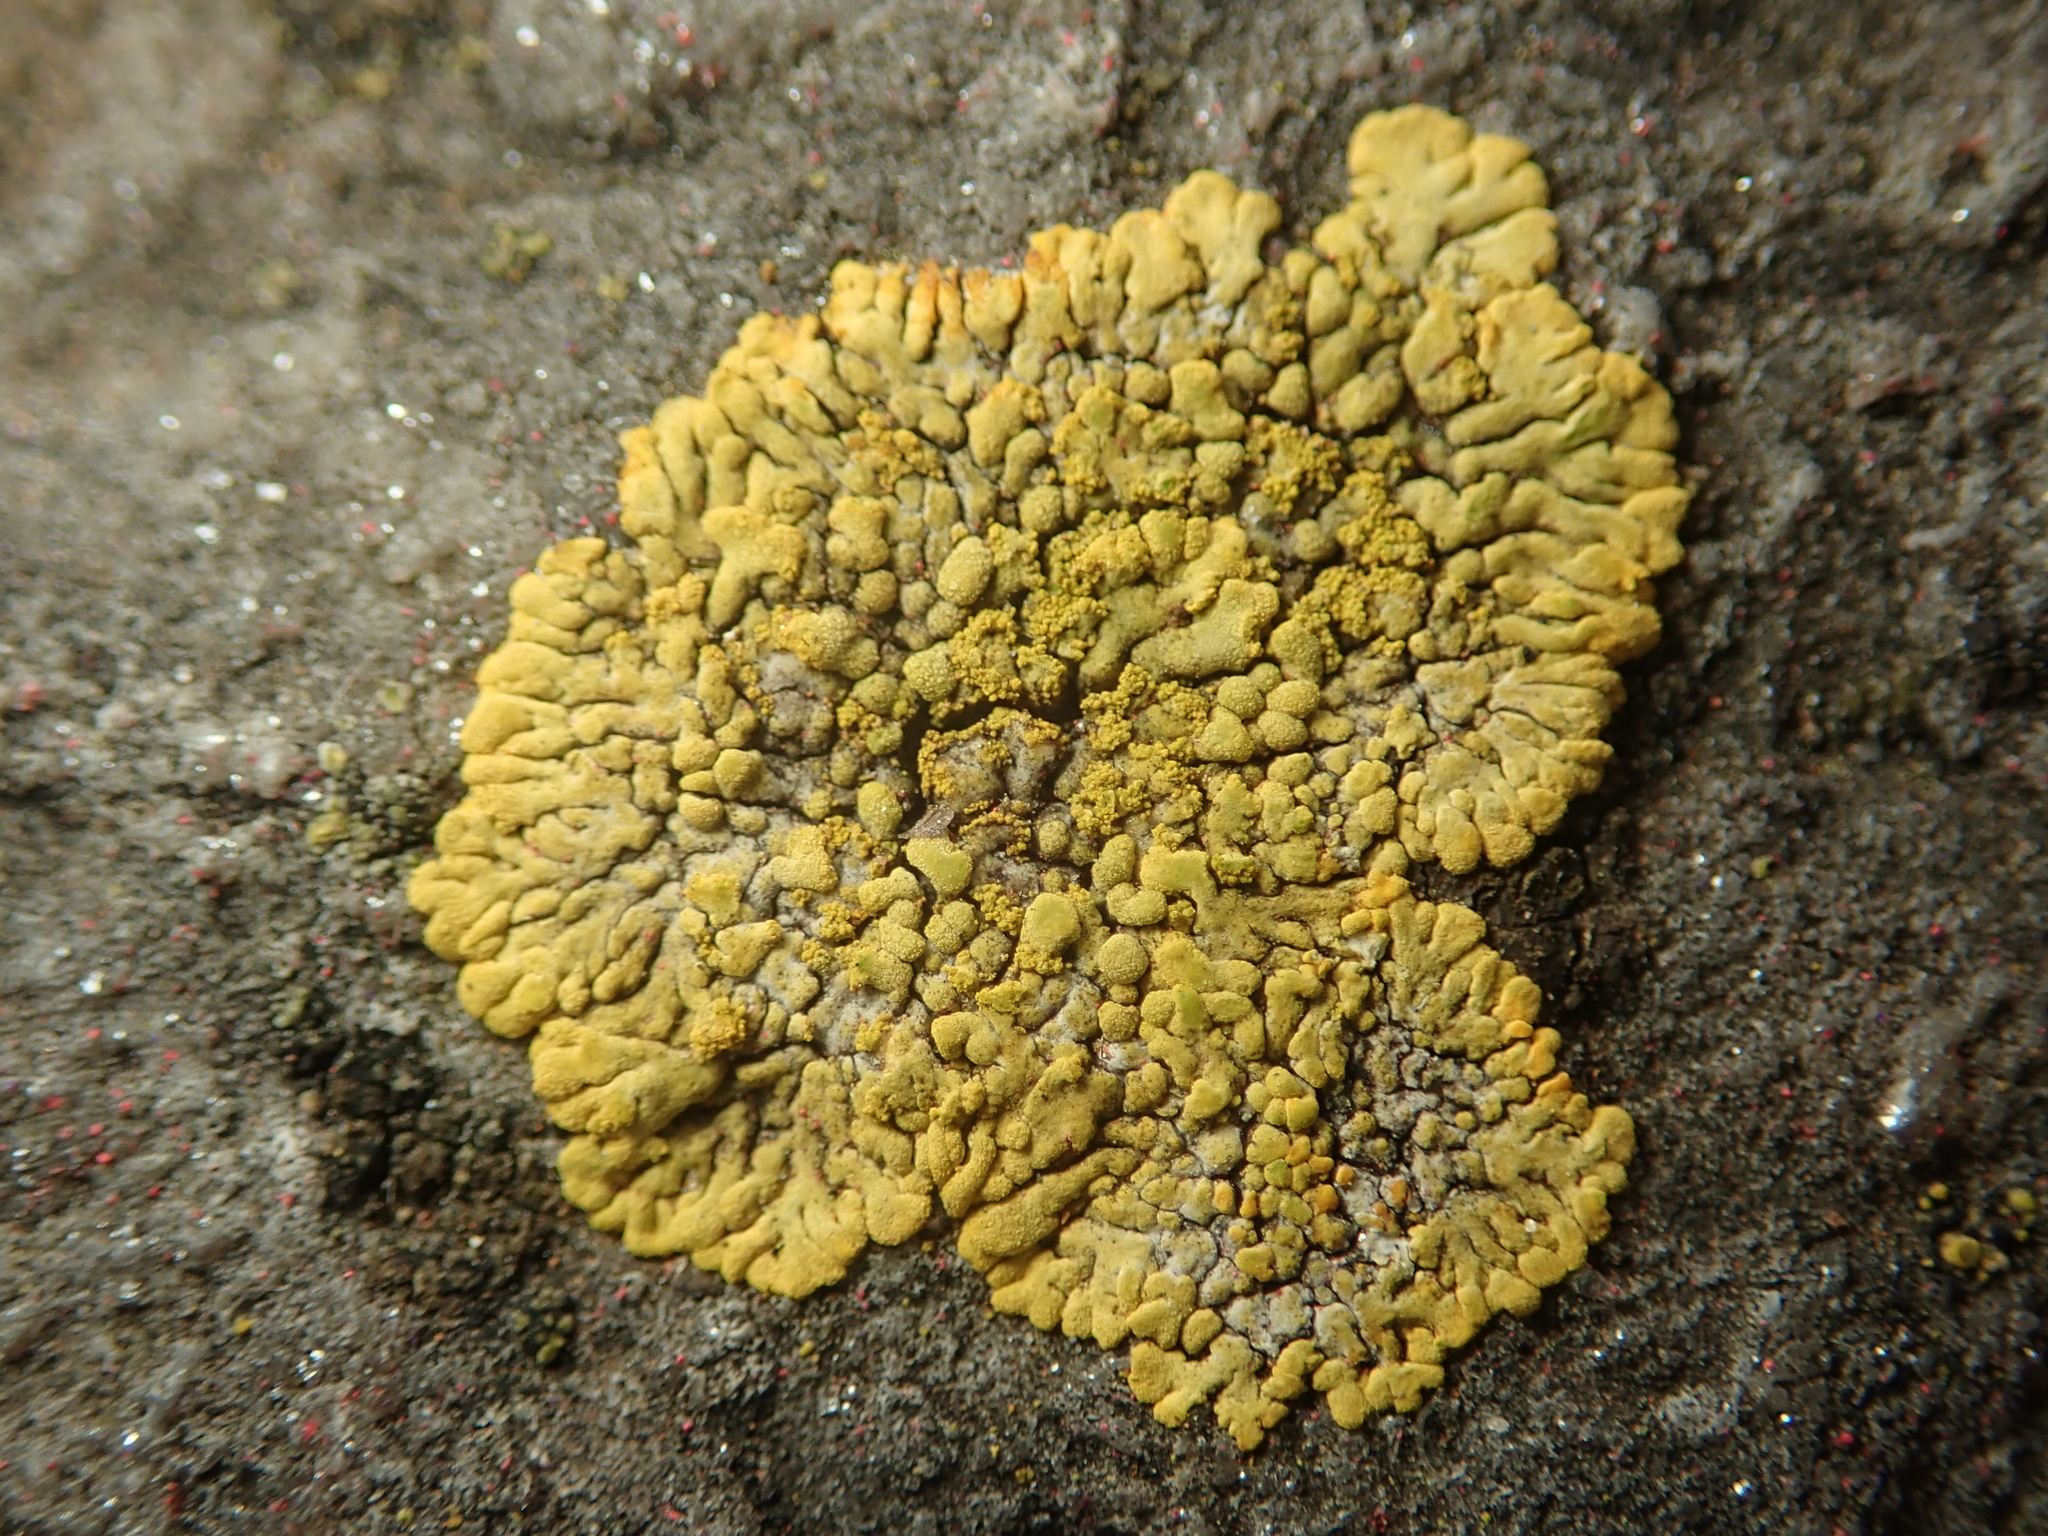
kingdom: Fungi
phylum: Ascomycota
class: Lecanoromycetes
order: Teloschistales
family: Teloschistaceae
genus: Calogaya
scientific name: Calogaya decipiens
